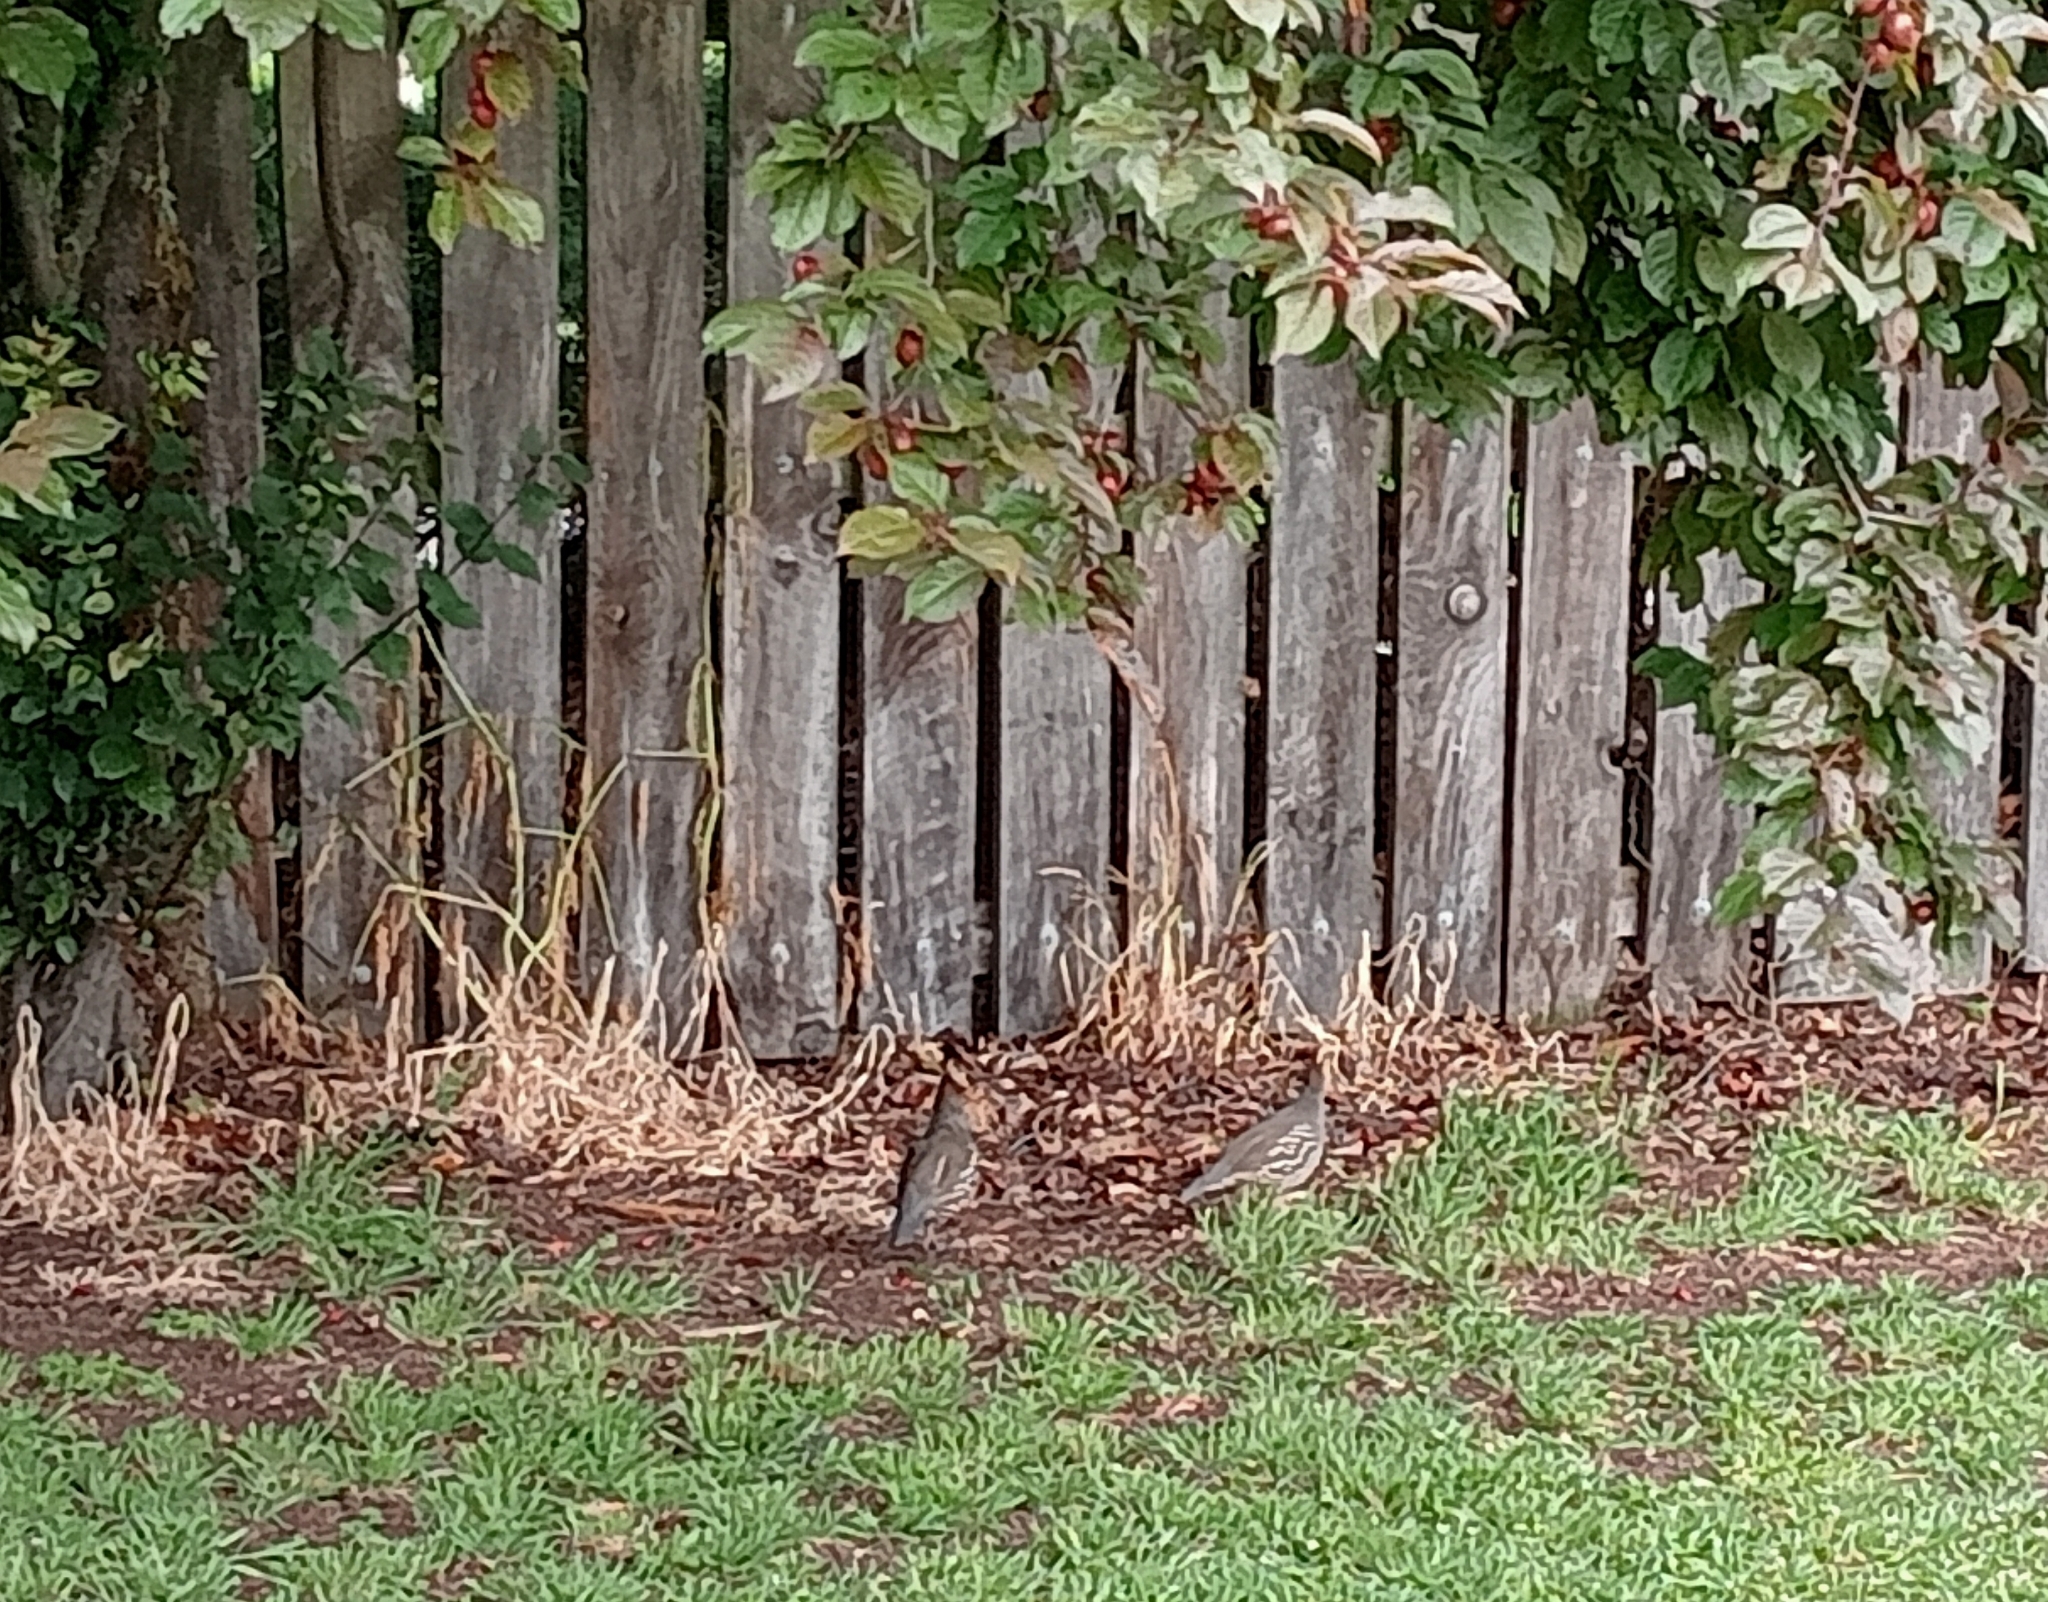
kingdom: Animalia
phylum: Chordata
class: Aves
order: Galliformes
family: Odontophoridae
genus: Callipepla
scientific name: Callipepla californica
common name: California quail
